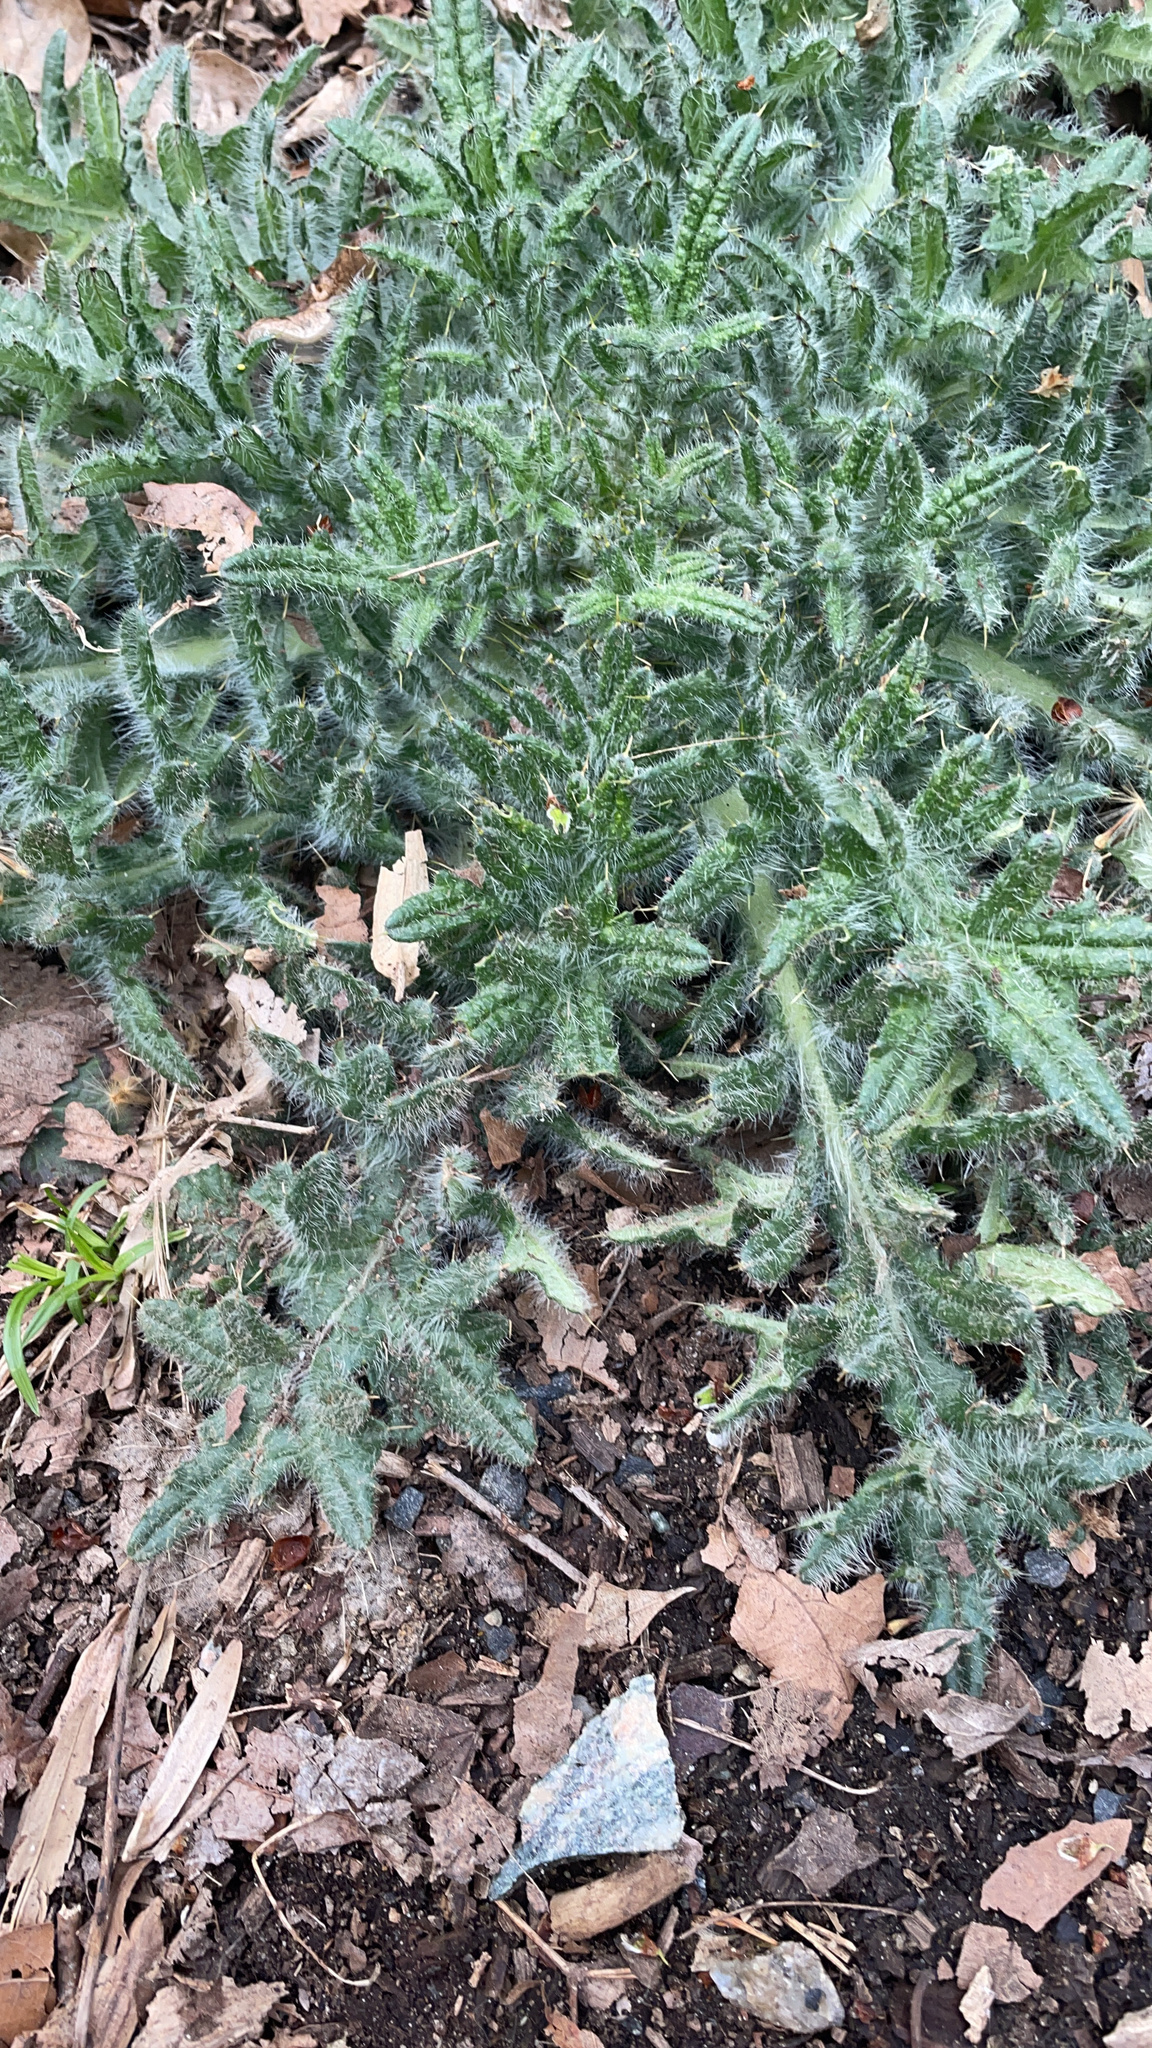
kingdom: Plantae
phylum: Tracheophyta
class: Magnoliopsida
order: Asterales
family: Asteraceae
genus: Cirsium
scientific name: Cirsium vulgare
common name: Bull thistle
